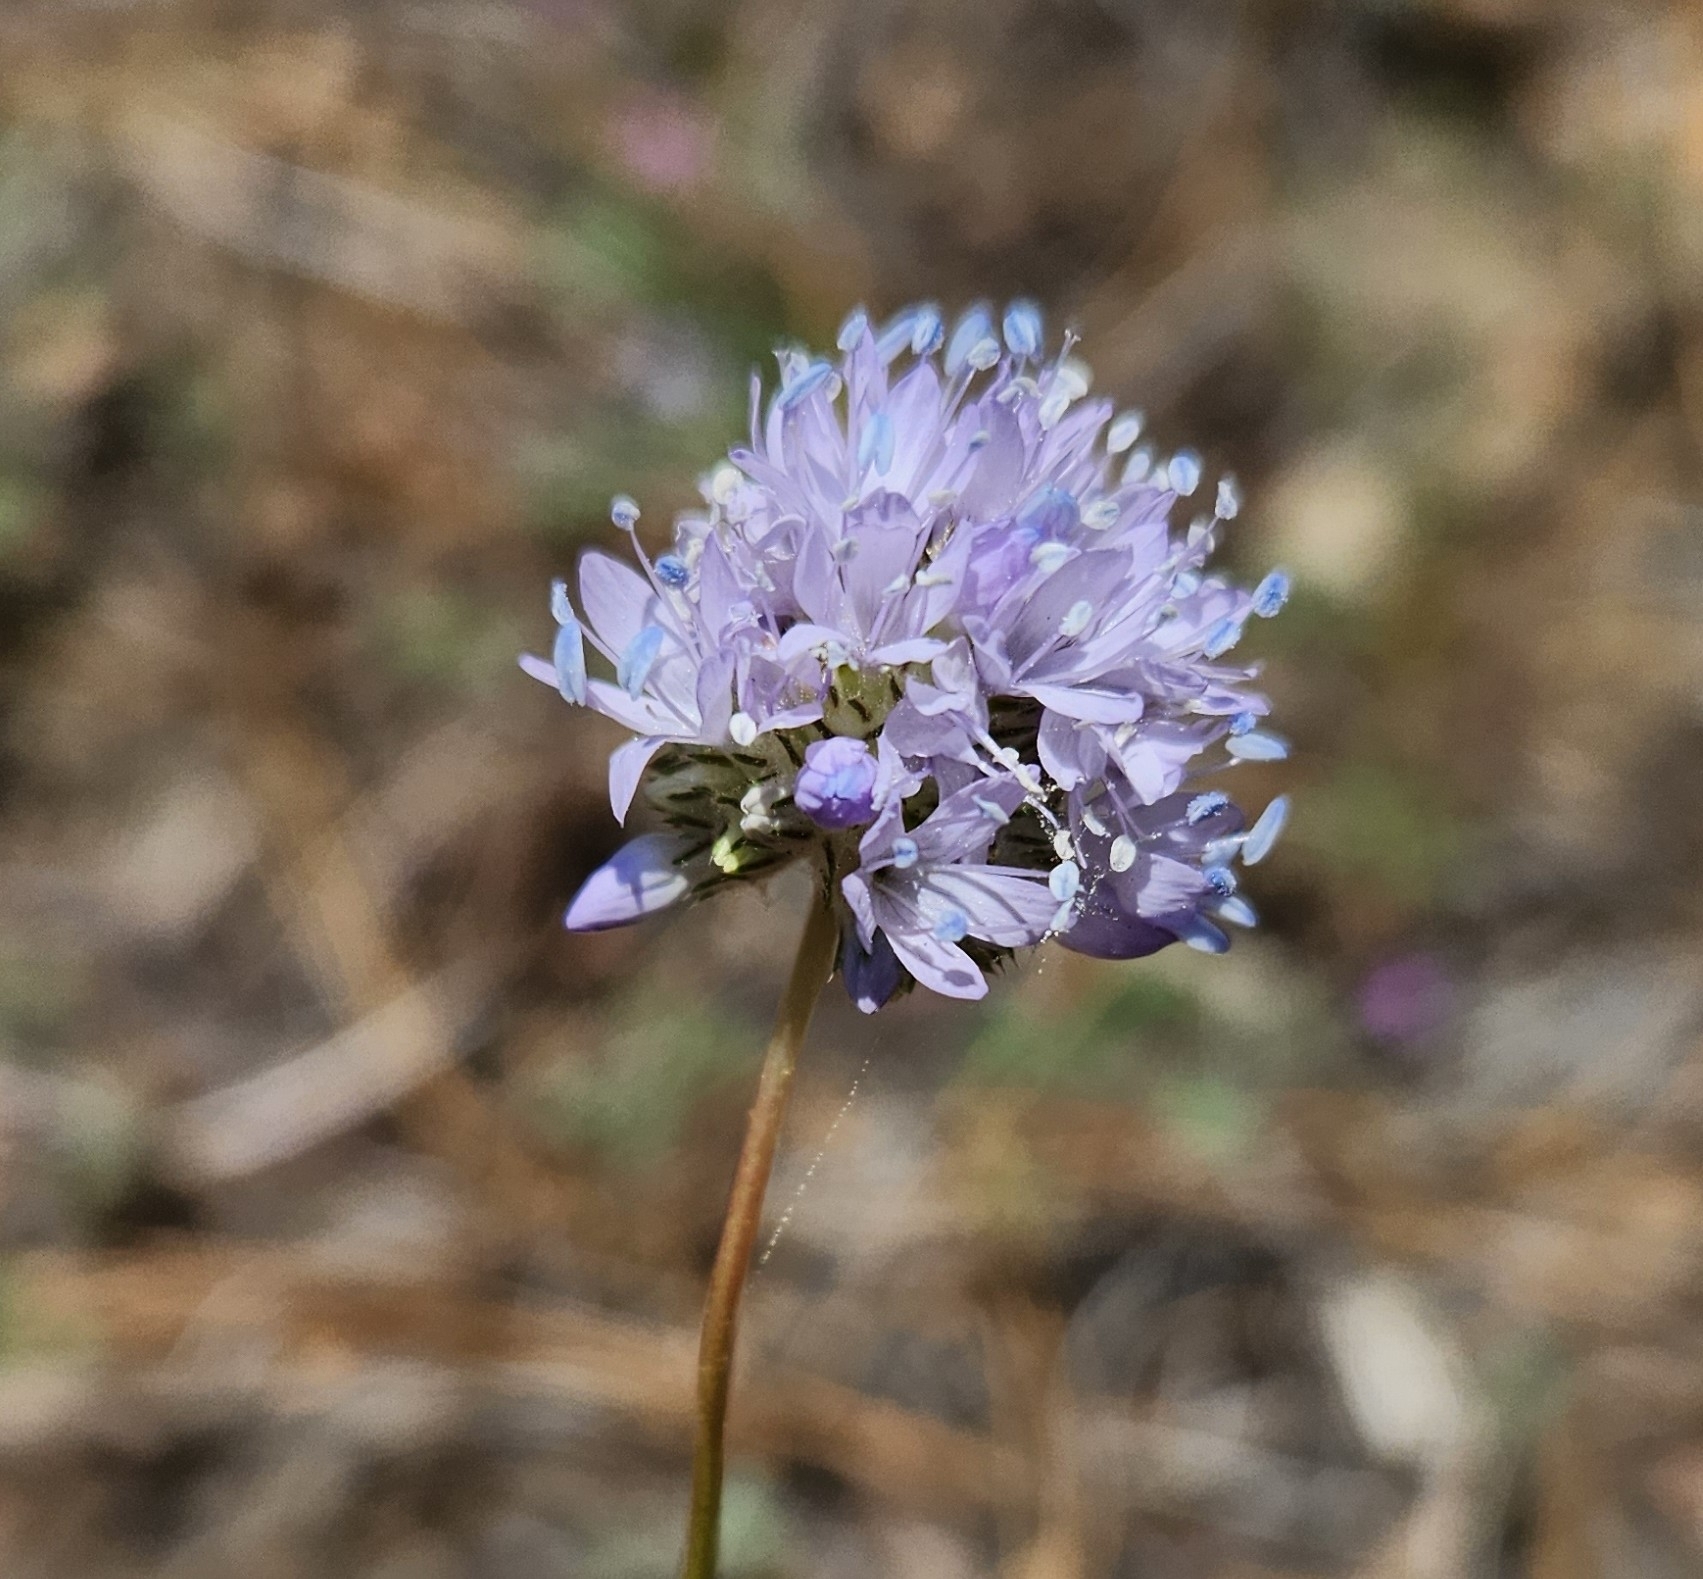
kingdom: Plantae
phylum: Tracheophyta
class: Magnoliopsida
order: Ericales
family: Polemoniaceae
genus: Gilia
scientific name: Gilia capitata
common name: Bluehead gilia
